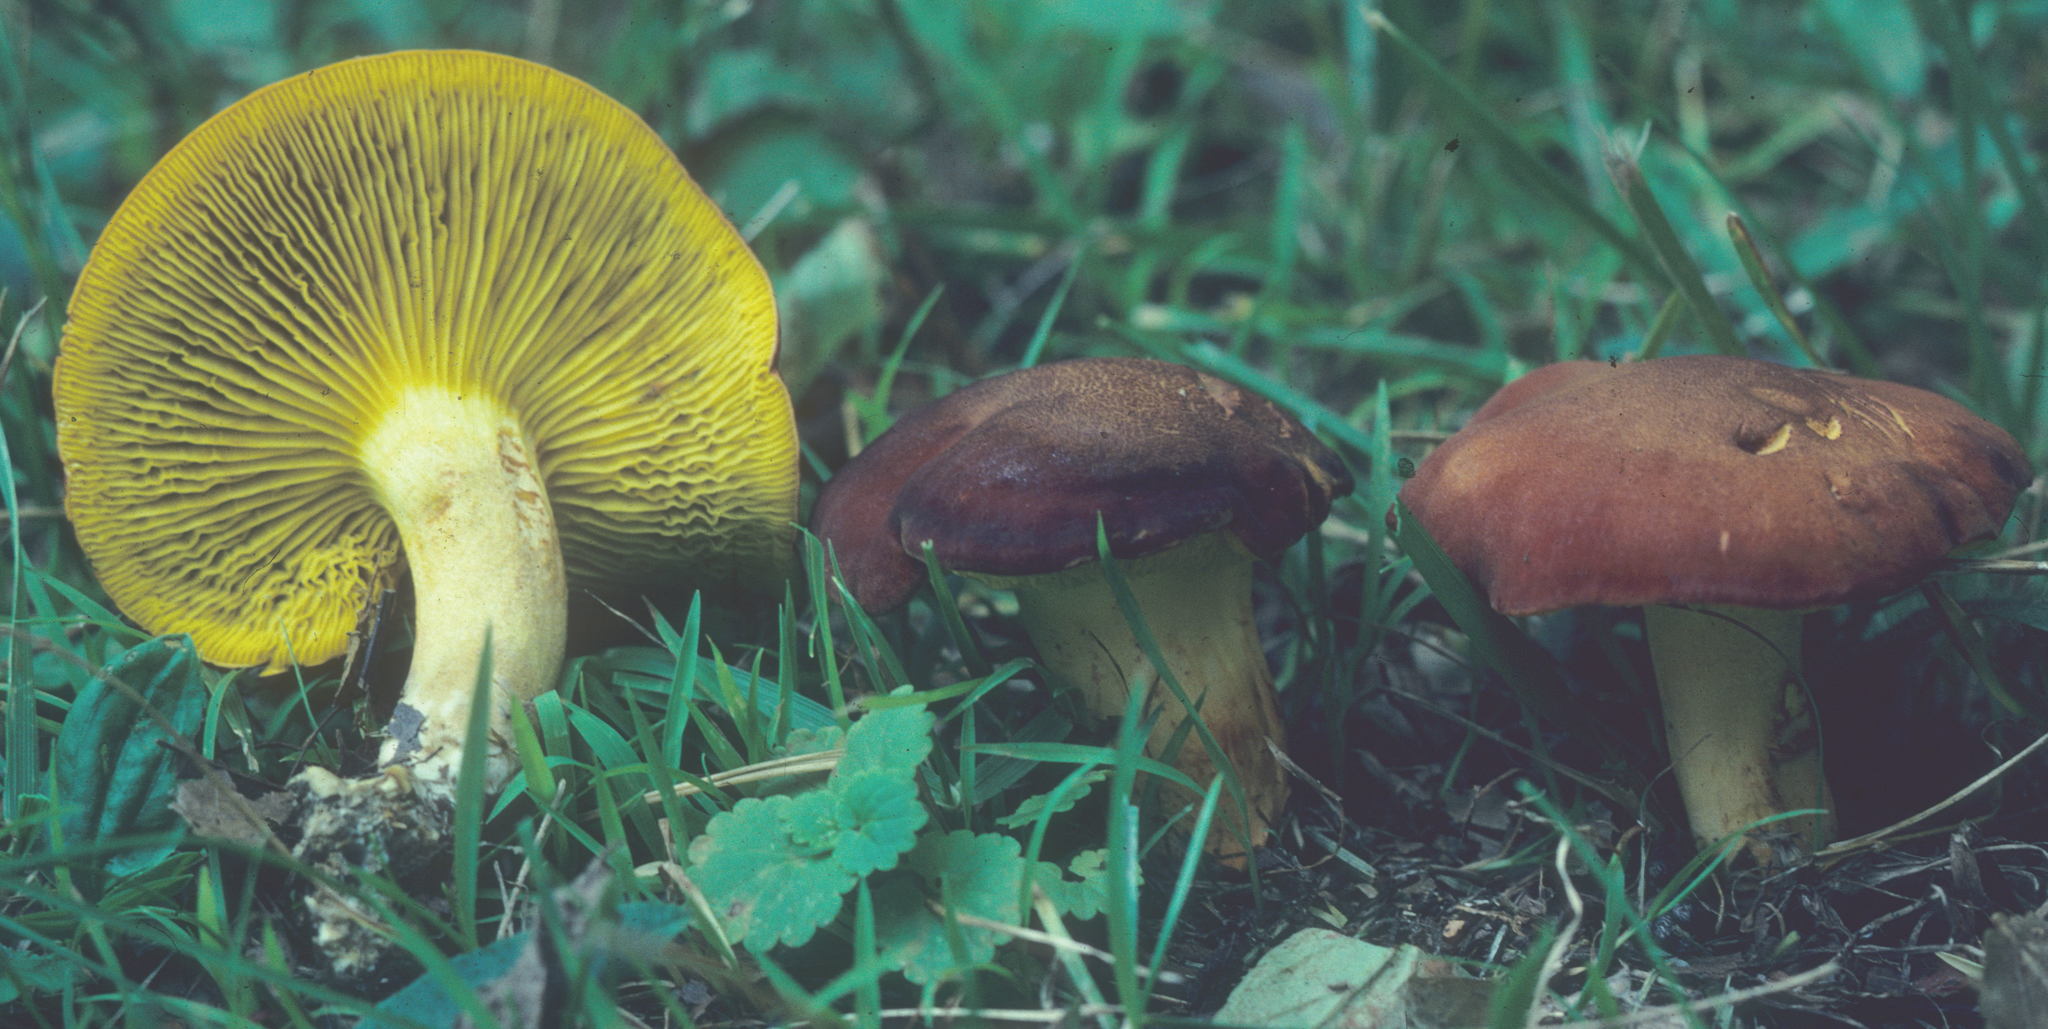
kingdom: Fungi
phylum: Basidiomycota
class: Agaricomycetes
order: Boletales
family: Boletaceae
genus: Phylloporus
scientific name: Phylloporus leucomycelinus
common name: Gilled bolete
